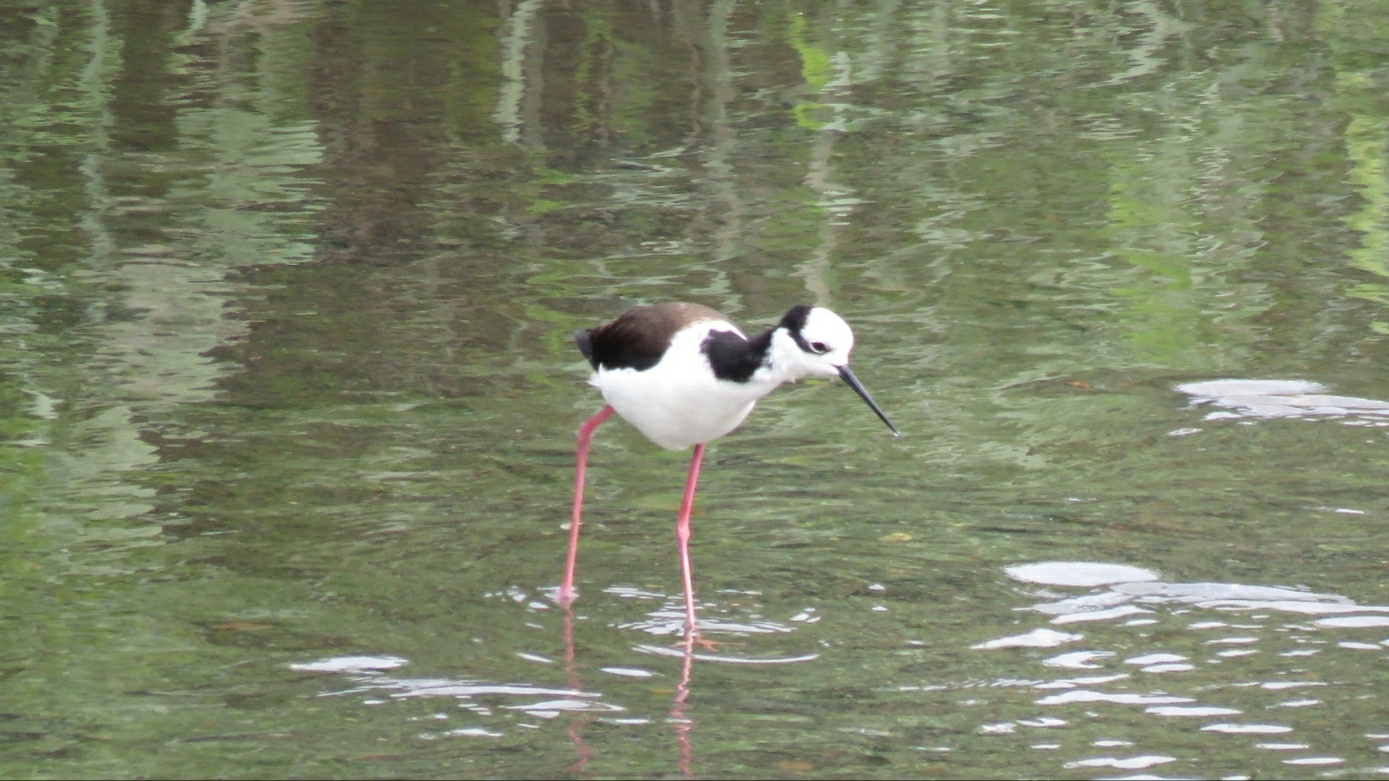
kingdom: Animalia
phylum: Chordata
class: Aves
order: Charadriiformes
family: Recurvirostridae
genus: Himantopus
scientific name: Himantopus mexicanus
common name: Black-necked stilt
